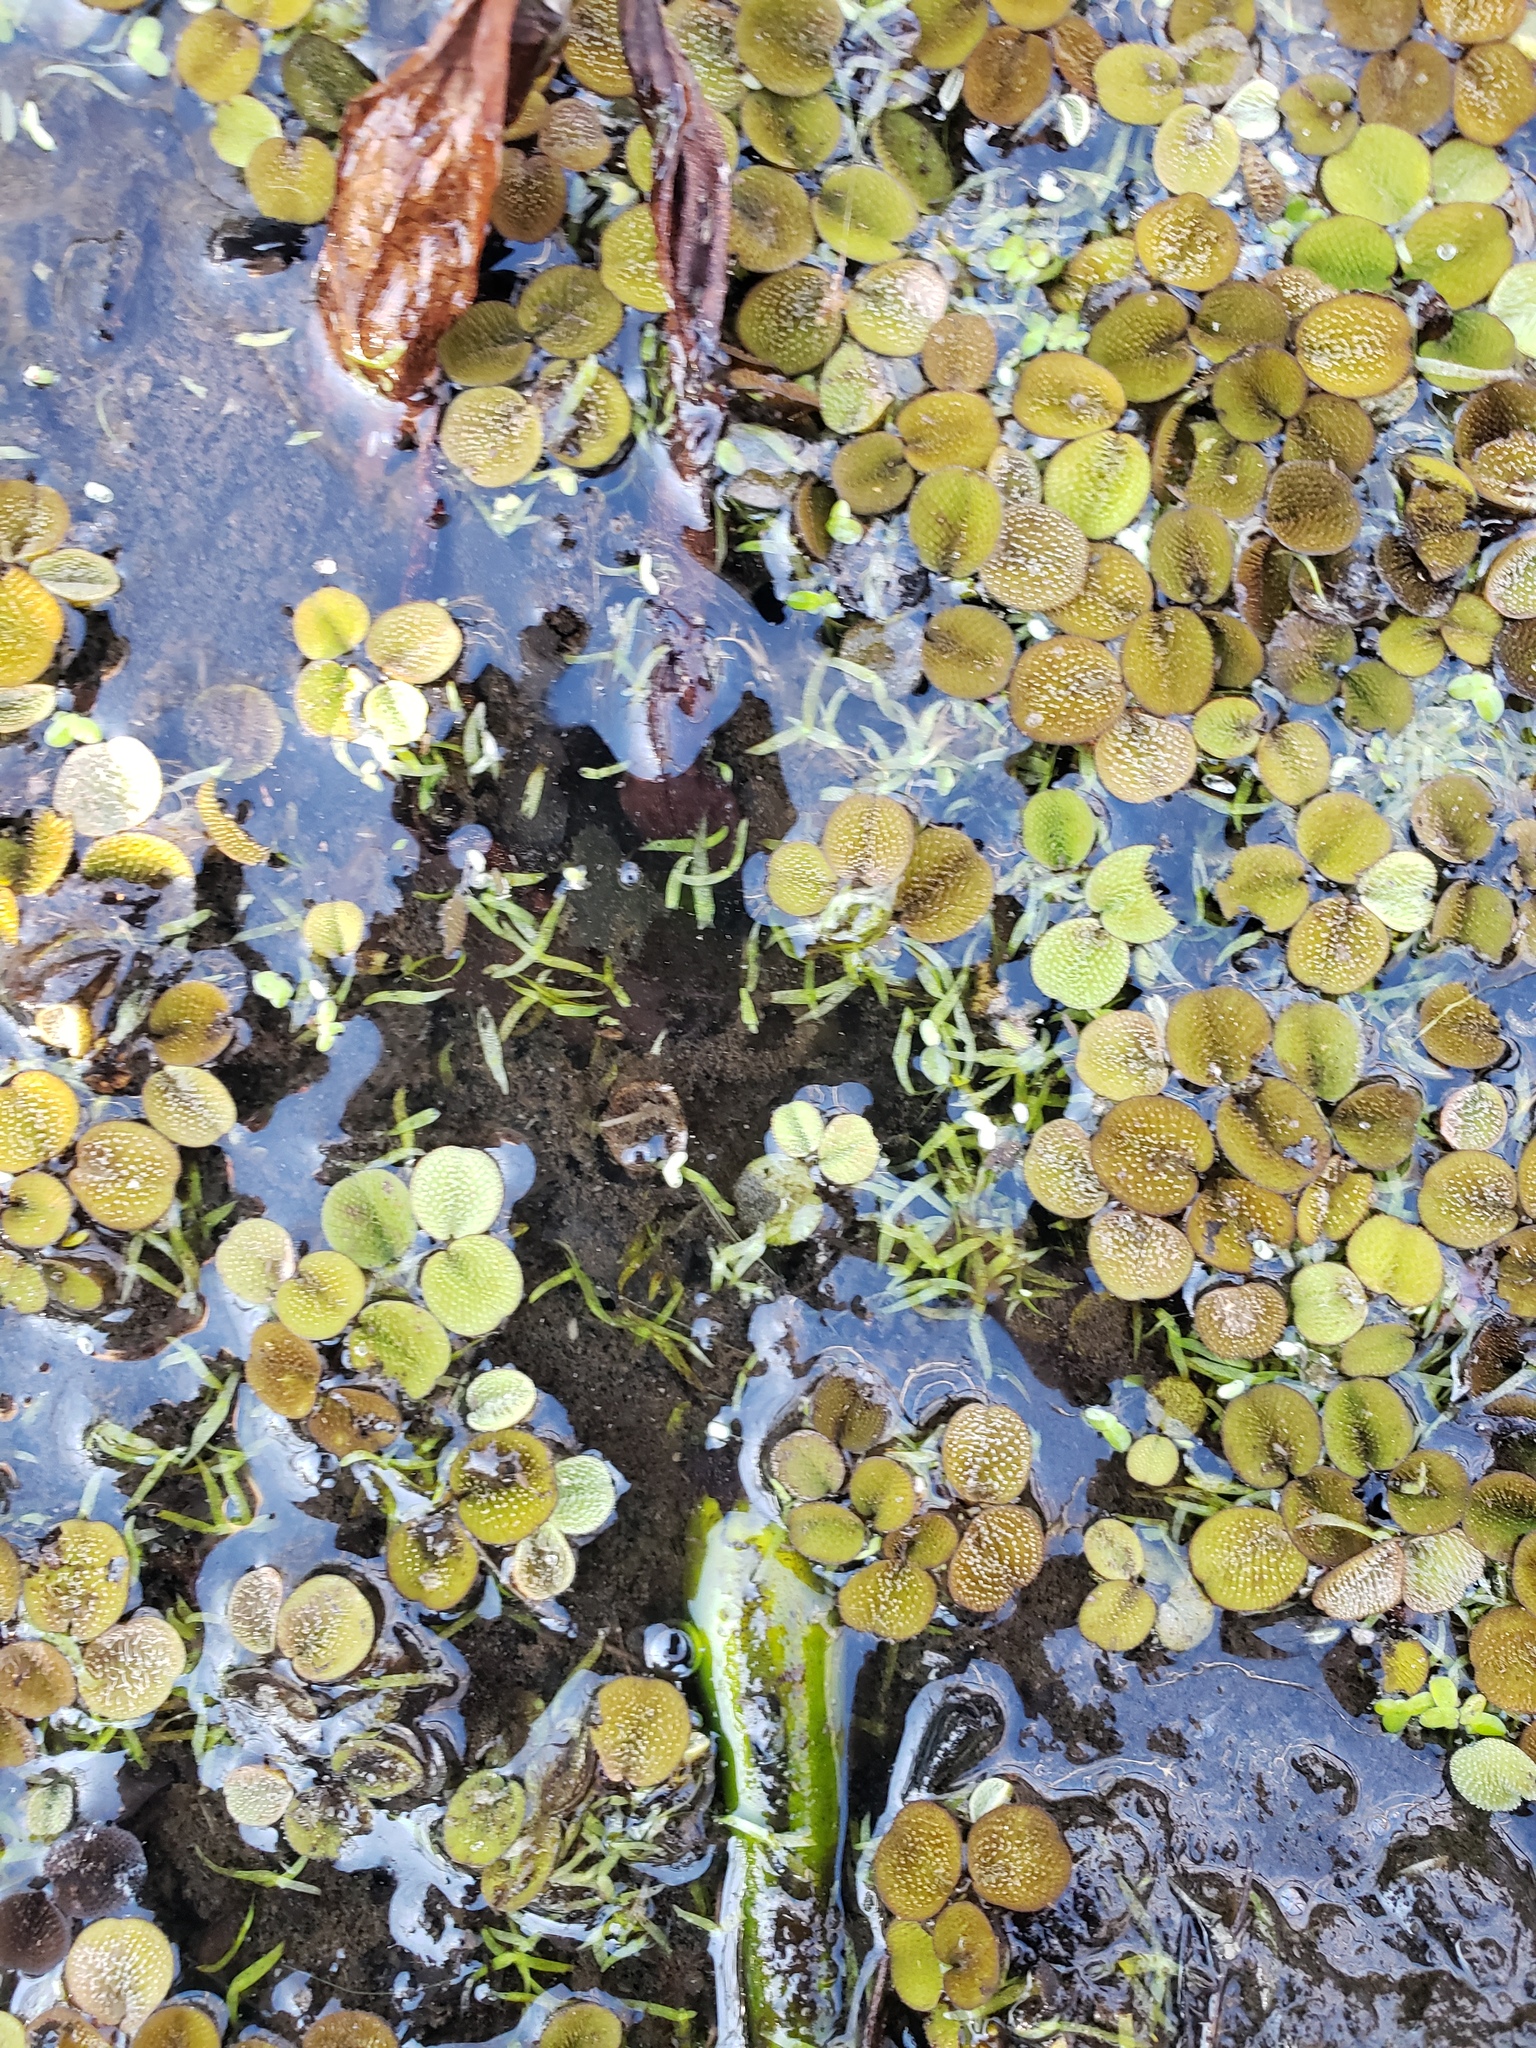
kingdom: Plantae
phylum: Tracheophyta
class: Polypodiopsida
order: Salviniales
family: Salviniaceae
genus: Salvinia
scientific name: Salvinia minima
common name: Water spangles
